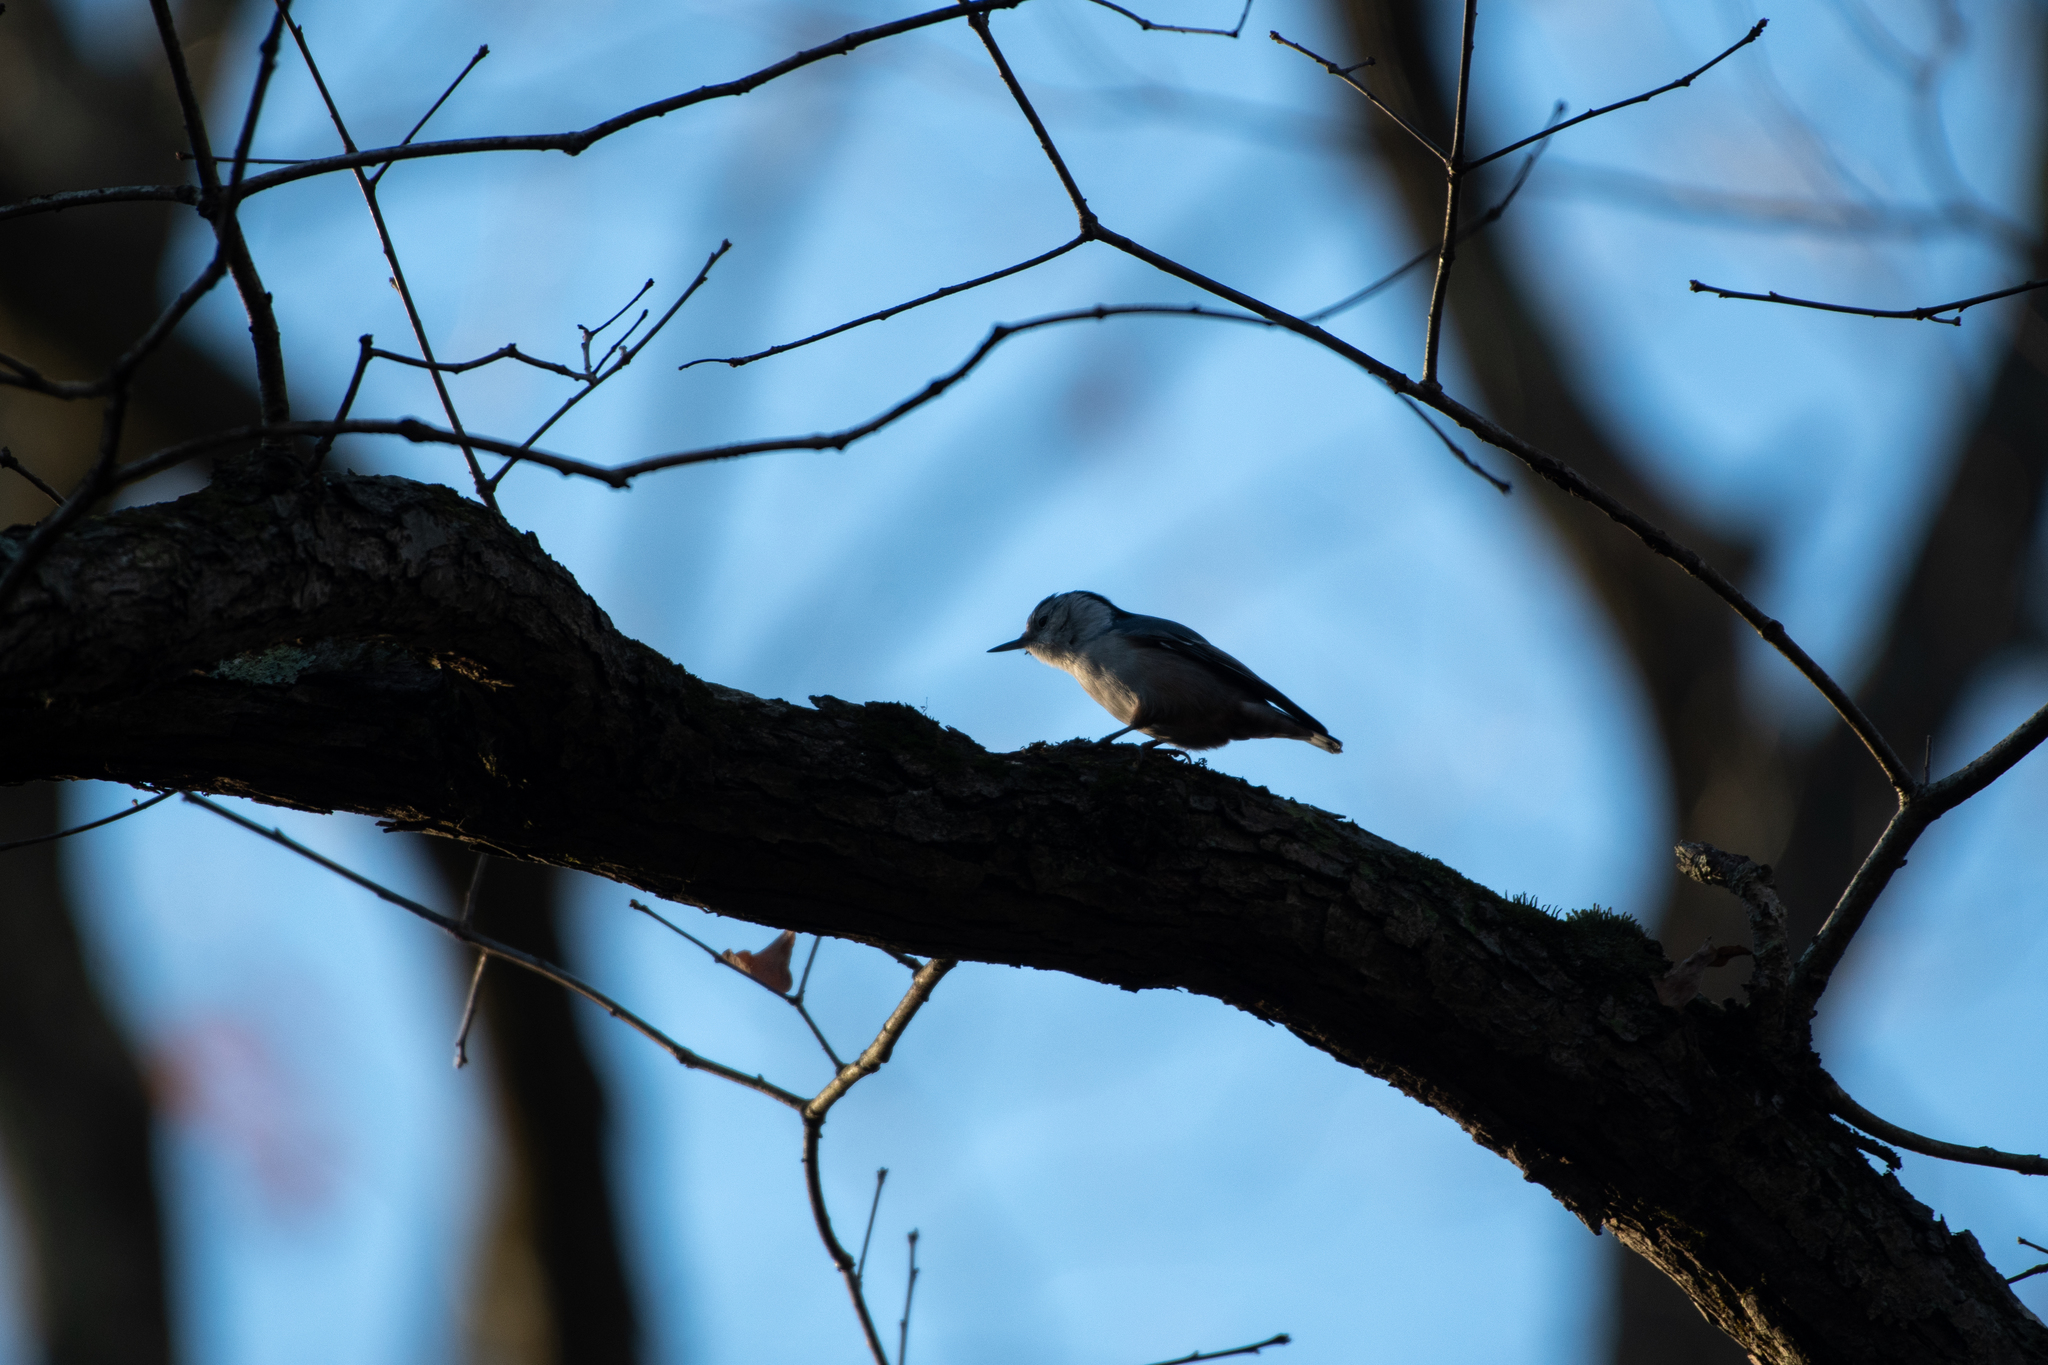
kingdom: Animalia
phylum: Chordata
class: Aves
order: Passeriformes
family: Sittidae
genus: Sitta
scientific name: Sitta carolinensis
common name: White-breasted nuthatch
